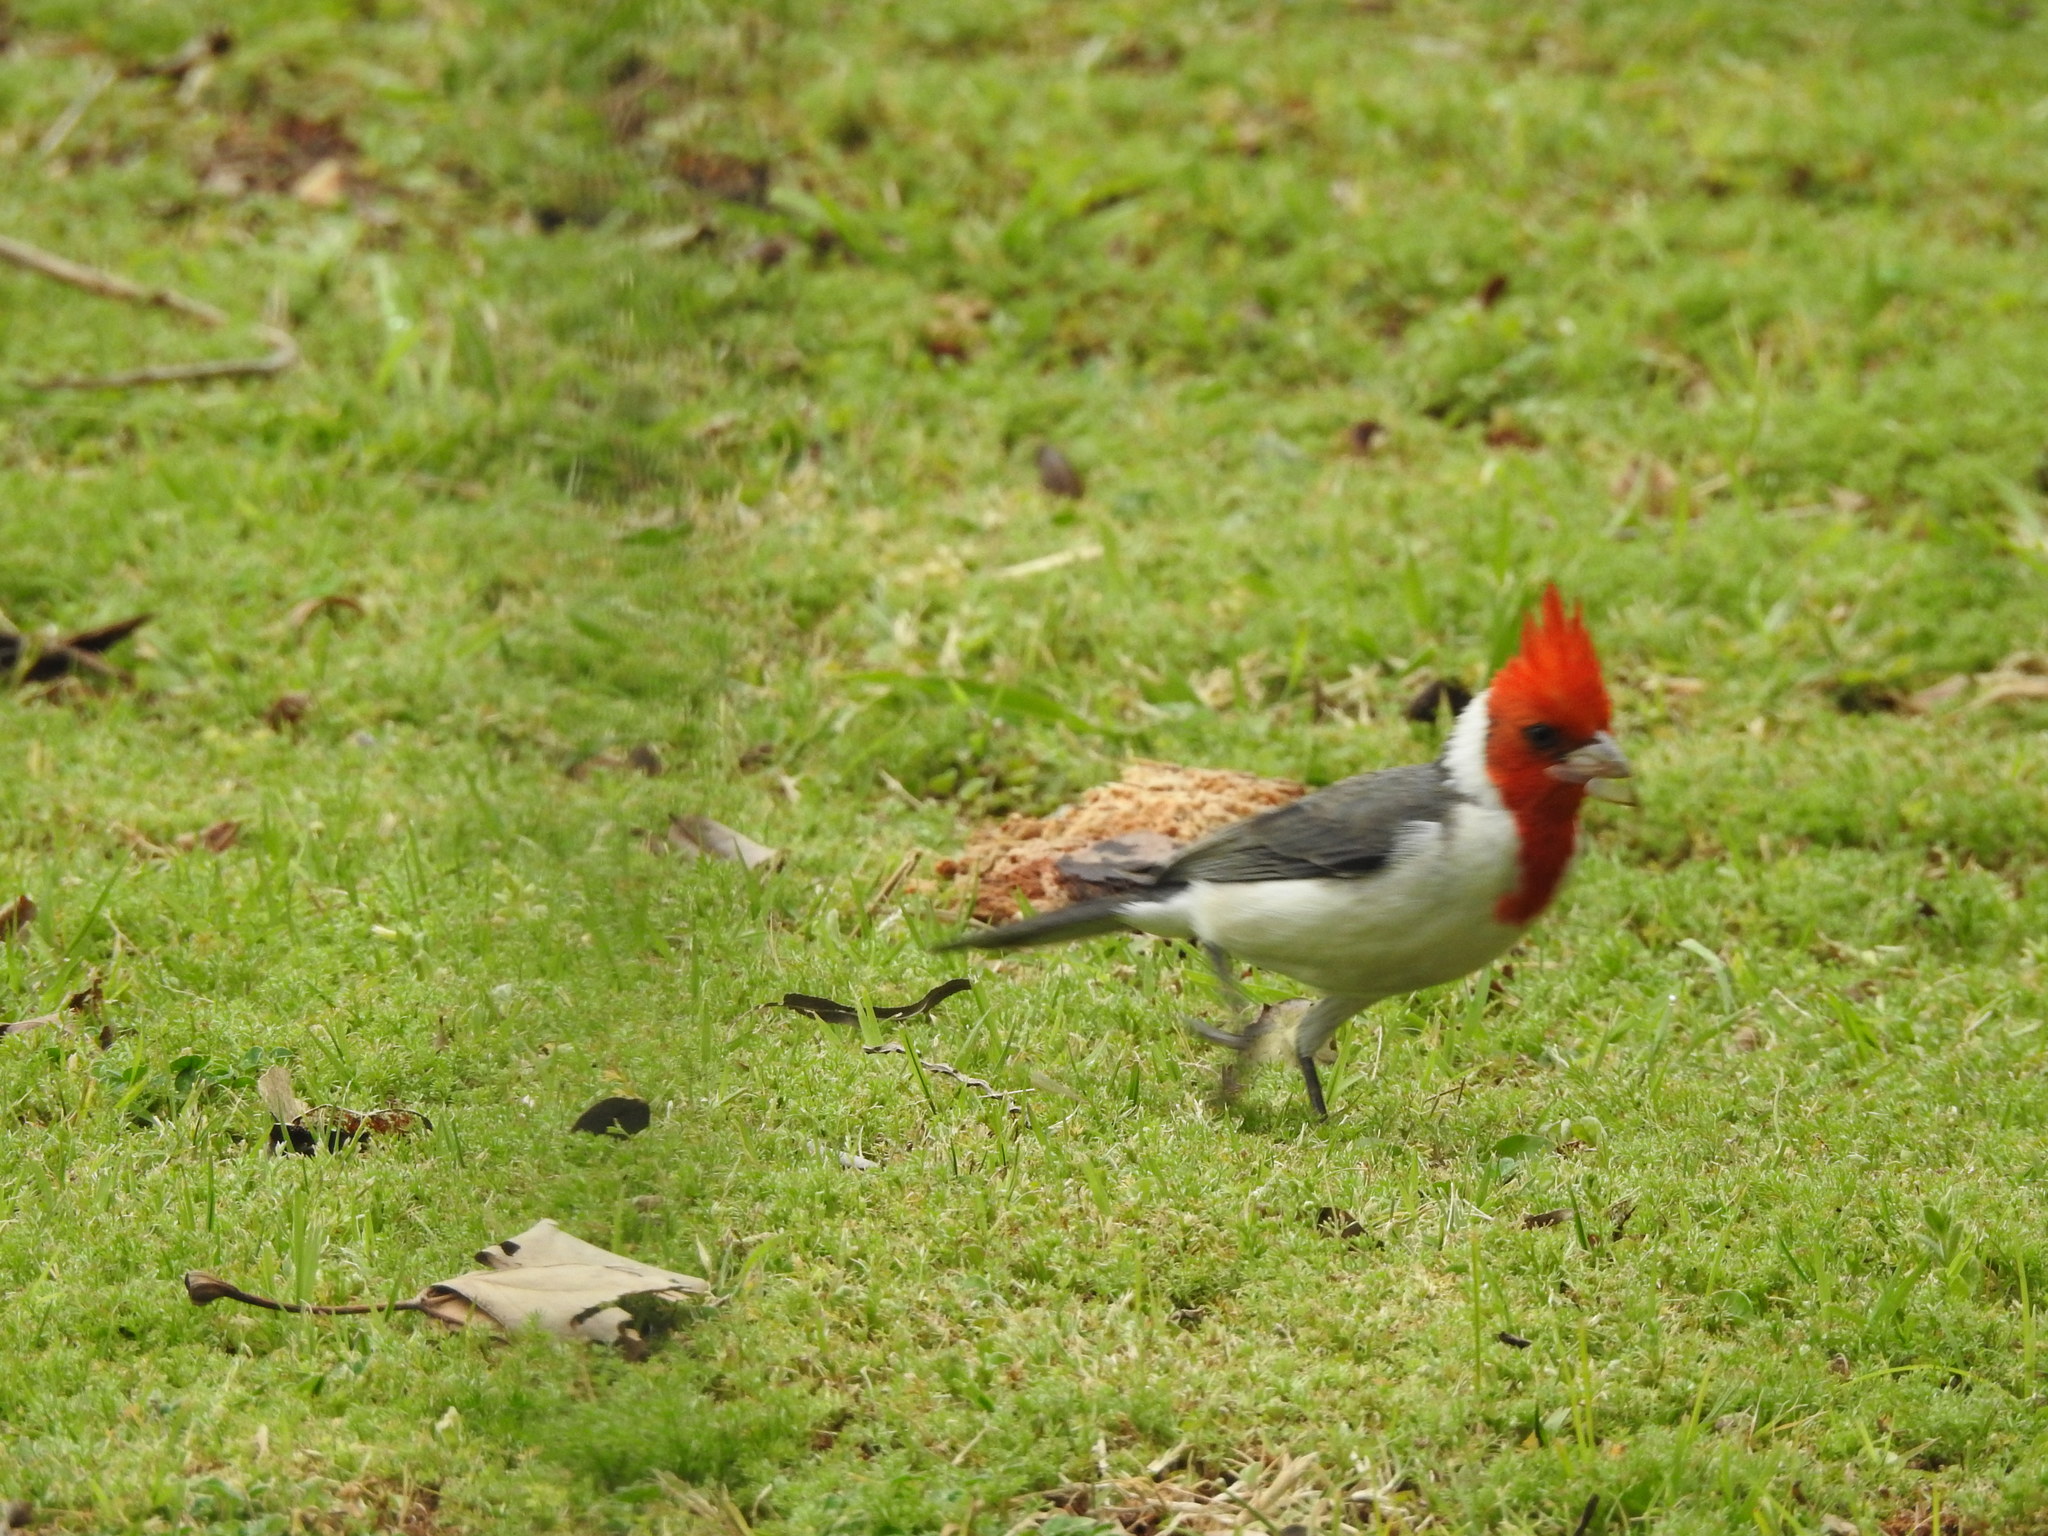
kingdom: Animalia
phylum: Chordata
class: Aves
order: Passeriformes
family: Thraupidae
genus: Paroaria
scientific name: Paroaria coronata
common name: Red-crested cardinal
